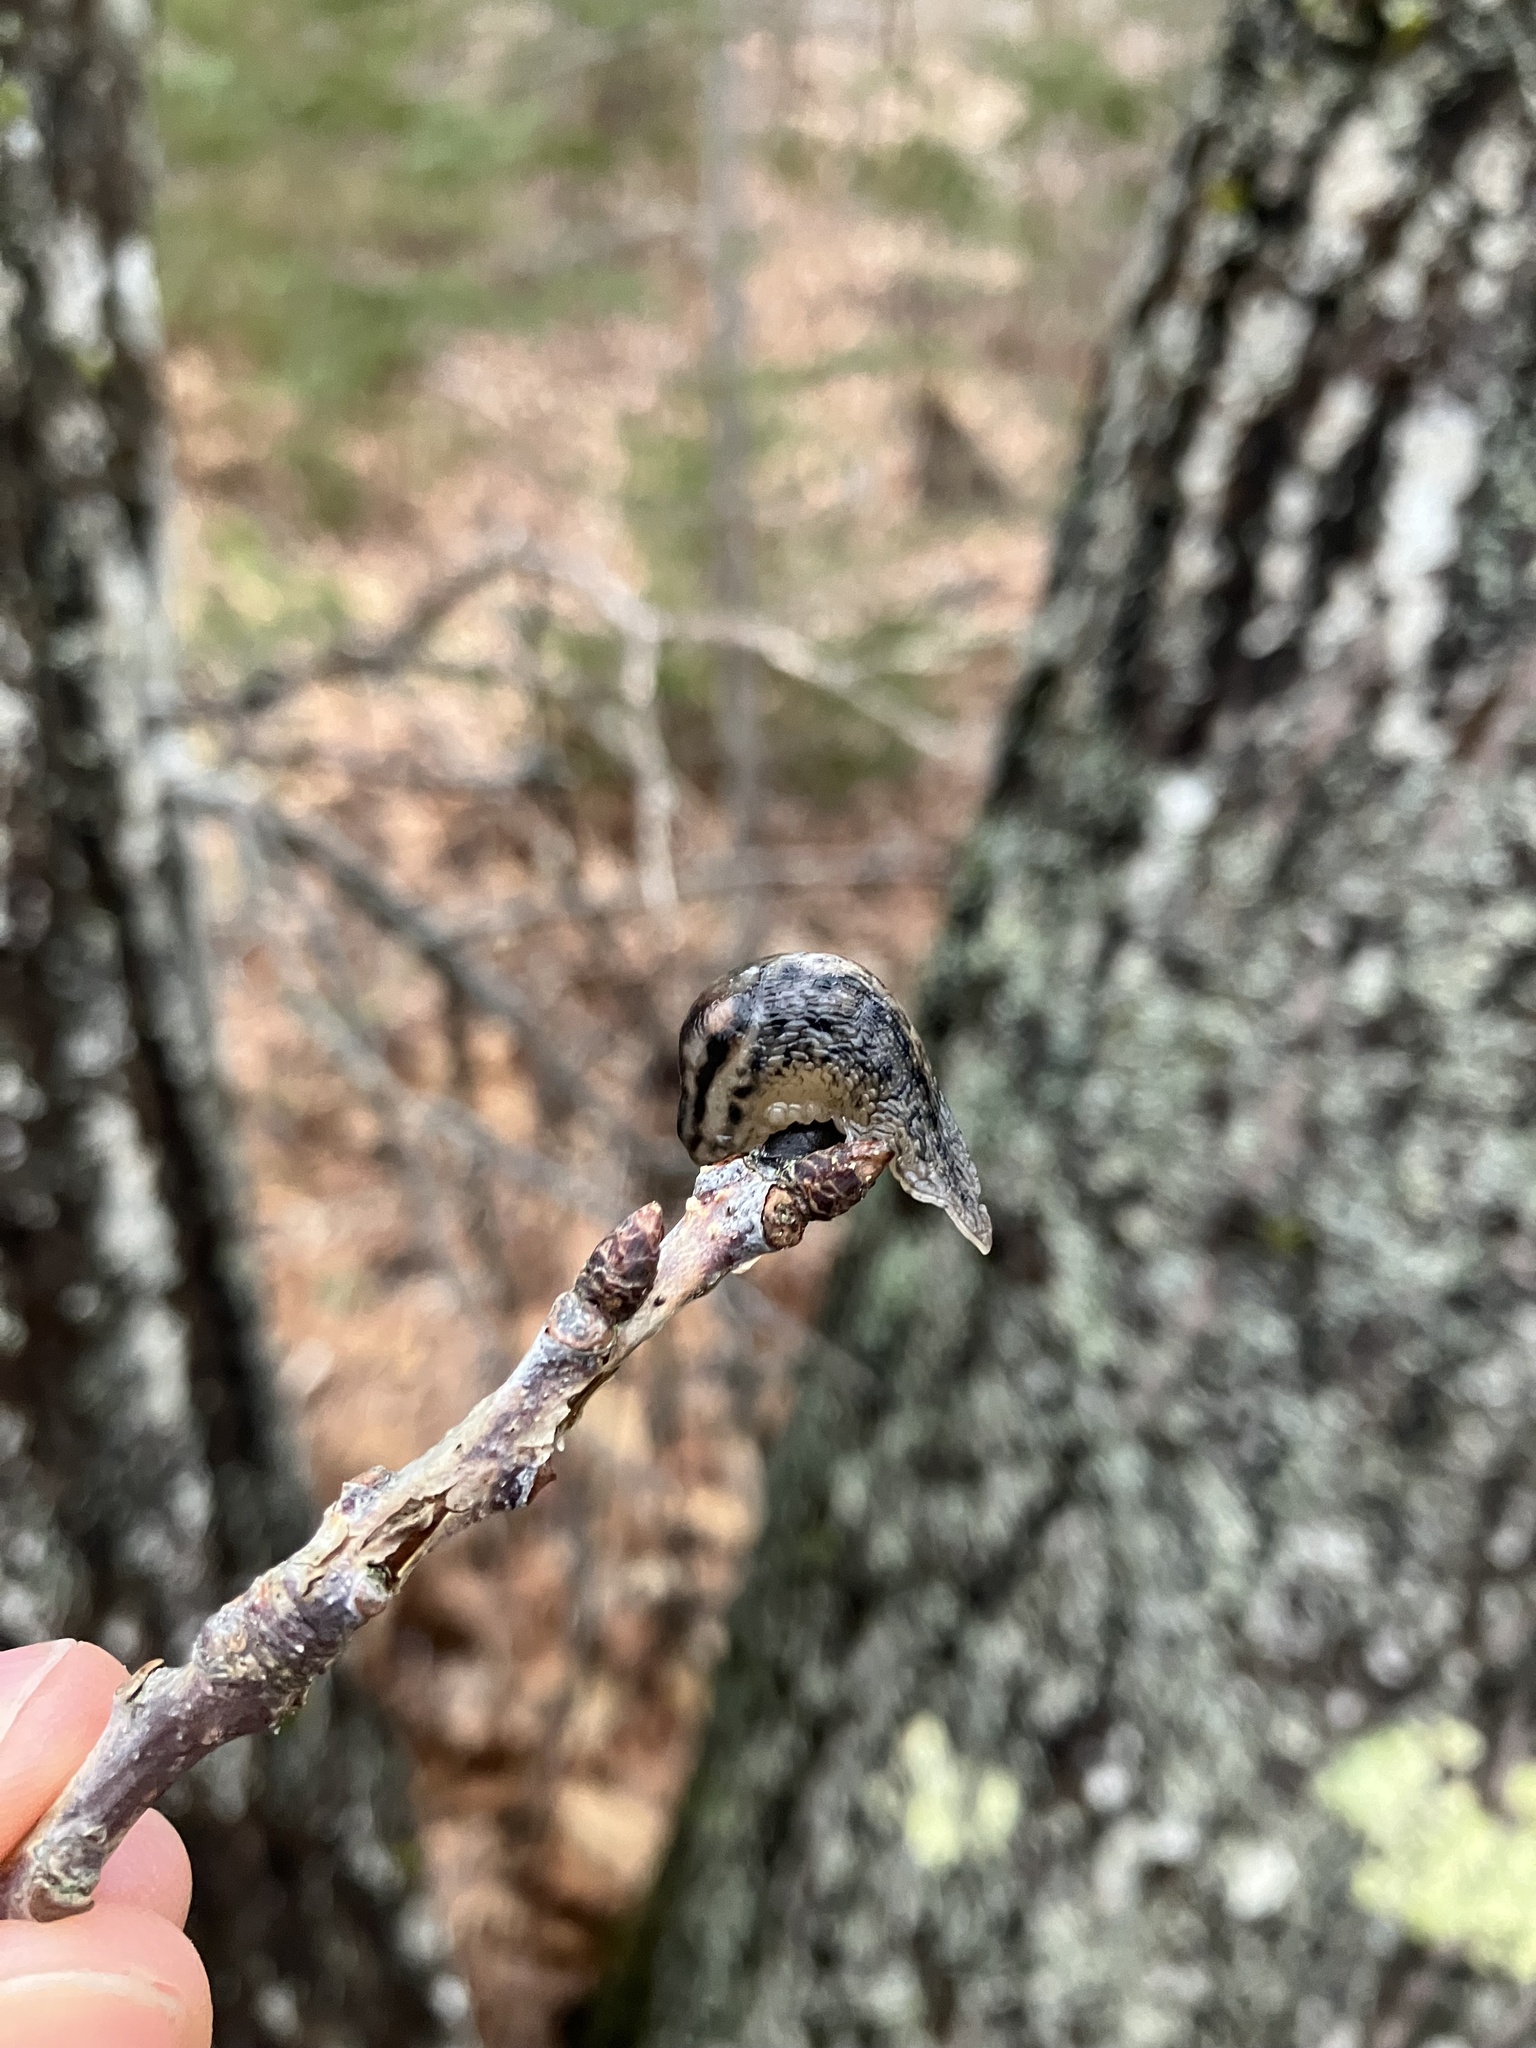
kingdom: Animalia
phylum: Mollusca
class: Gastropoda
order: Stylommatophora
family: Limacidae
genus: Lehmannia
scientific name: Lehmannia marginata
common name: Tree slug
